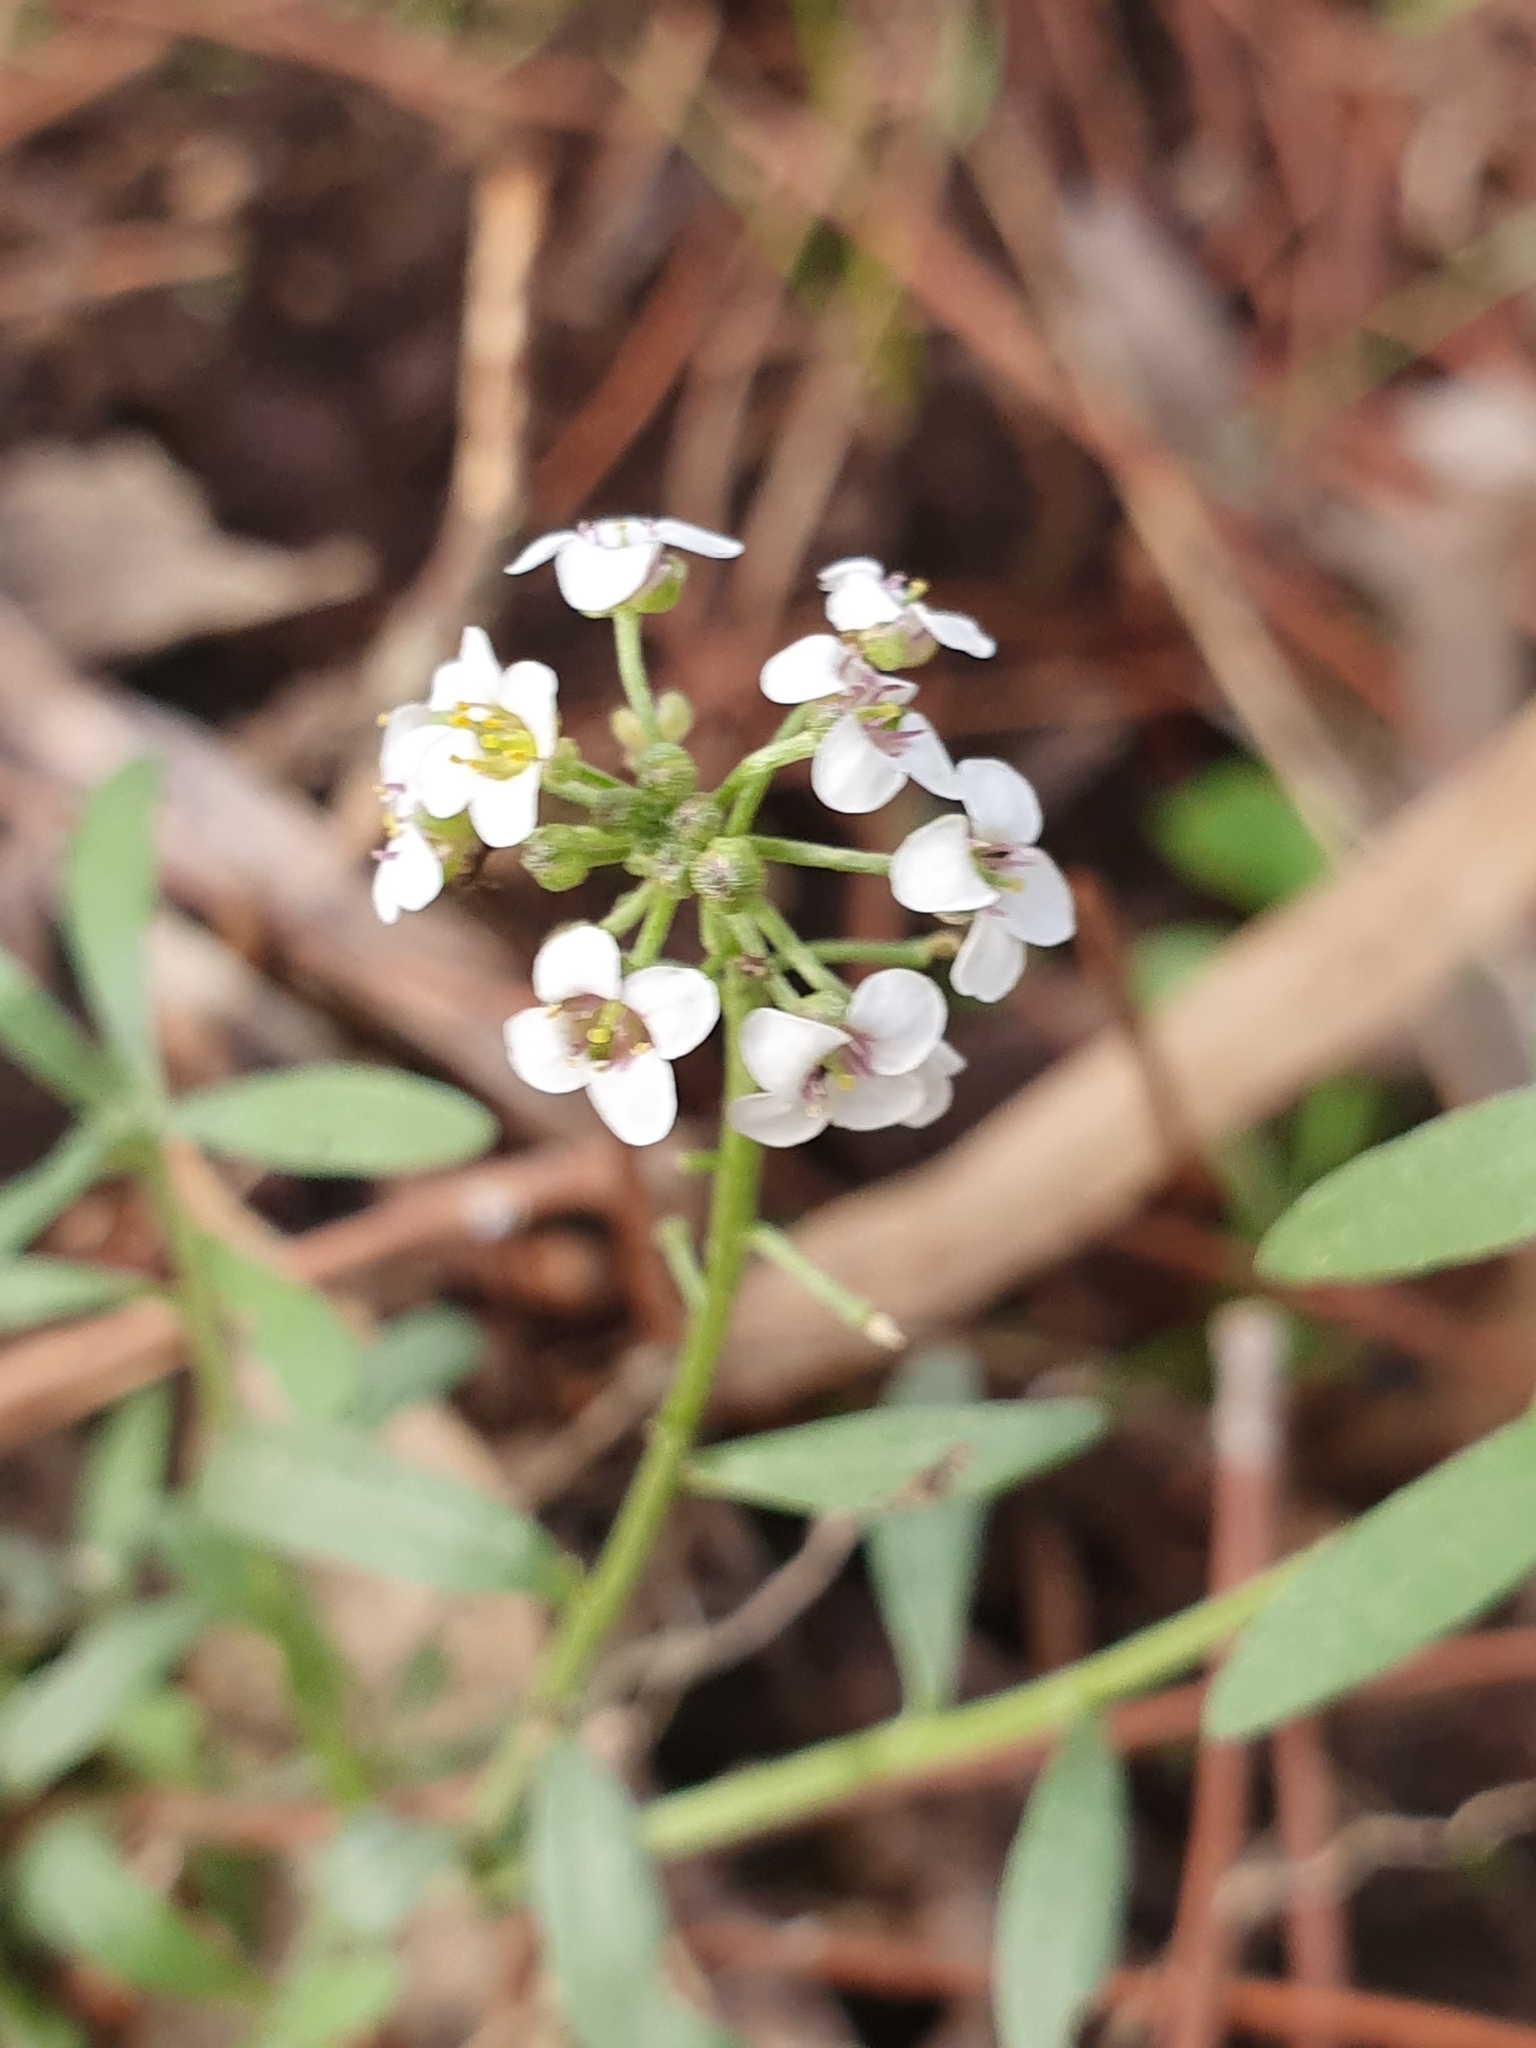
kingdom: Plantae
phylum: Tracheophyta
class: Magnoliopsida
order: Brassicales
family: Brassicaceae
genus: Lobularia
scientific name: Lobularia maritima
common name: Sweet alison
